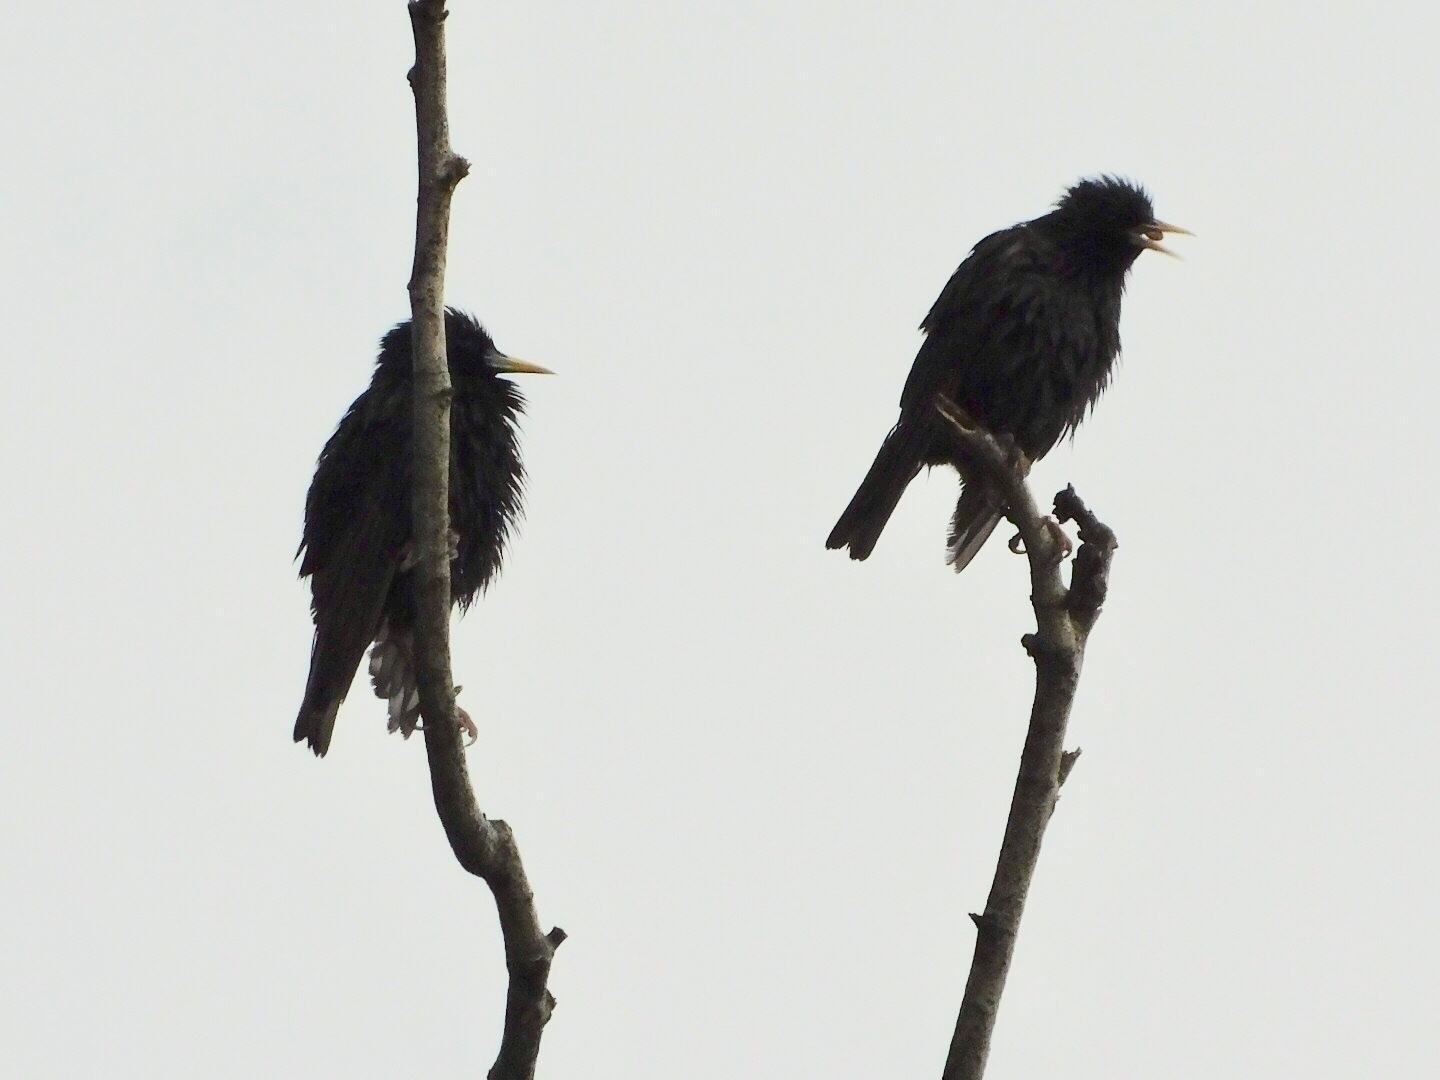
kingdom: Animalia
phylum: Chordata
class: Aves
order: Passeriformes
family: Sturnidae
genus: Sturnus
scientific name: Sturnus vulgaris
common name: Common starling
